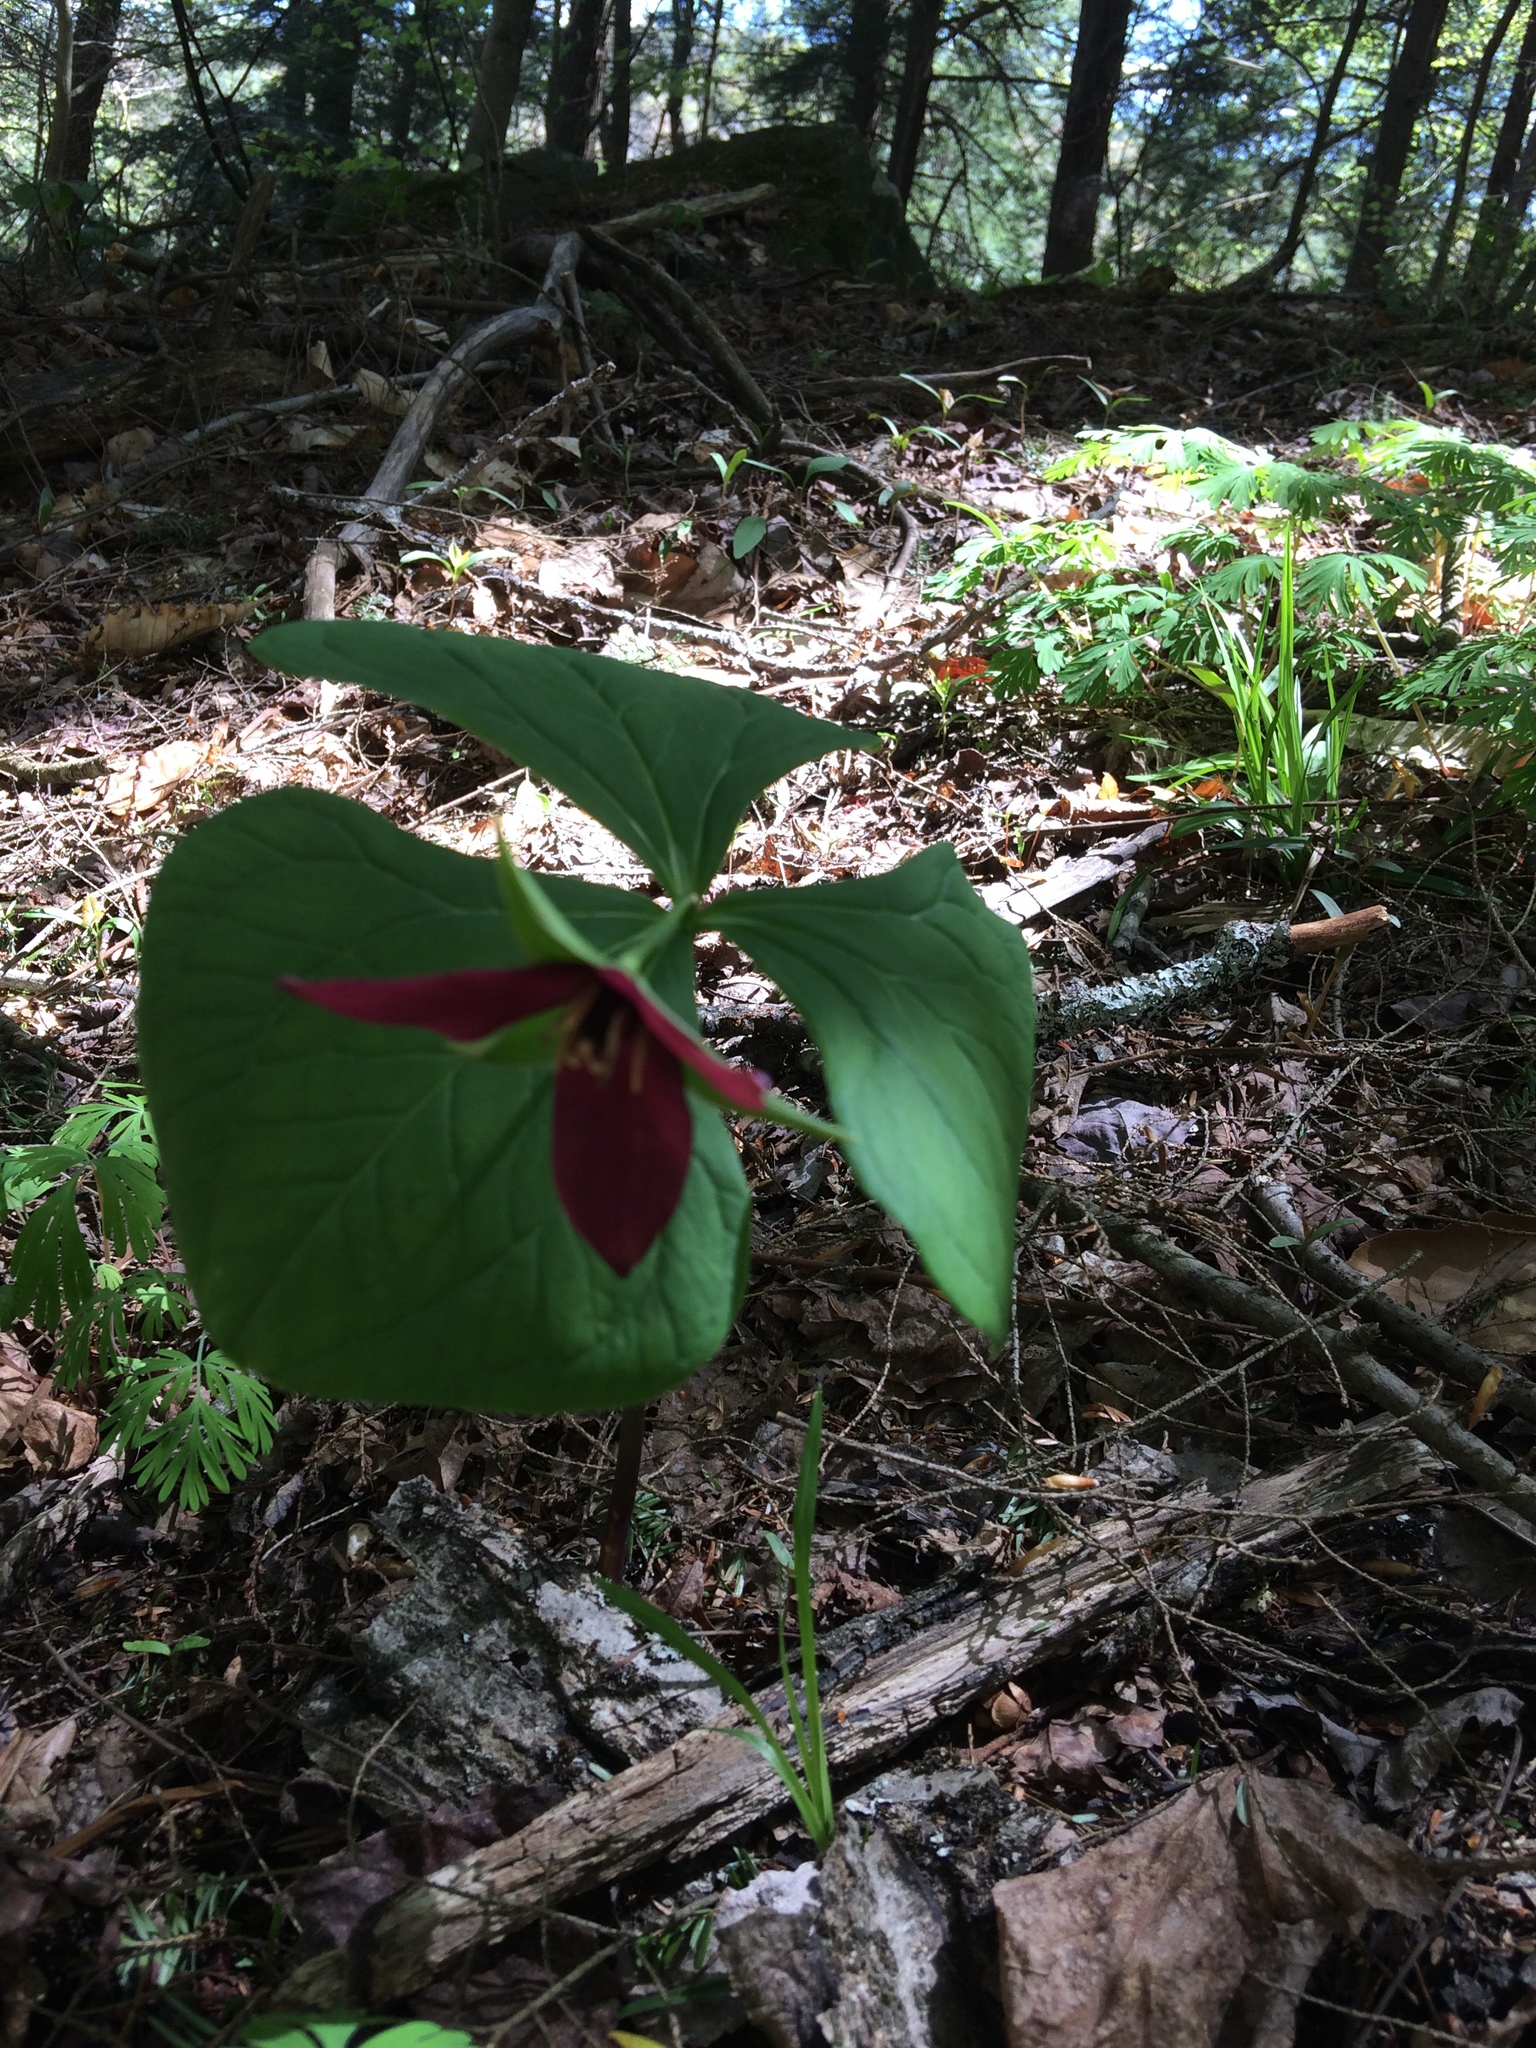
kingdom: Plantae
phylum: Tracheophyta
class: Liliopsida
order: Liliales
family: Melanthiaceae
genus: Trillium
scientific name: Trillium erectum
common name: Purple trillium
